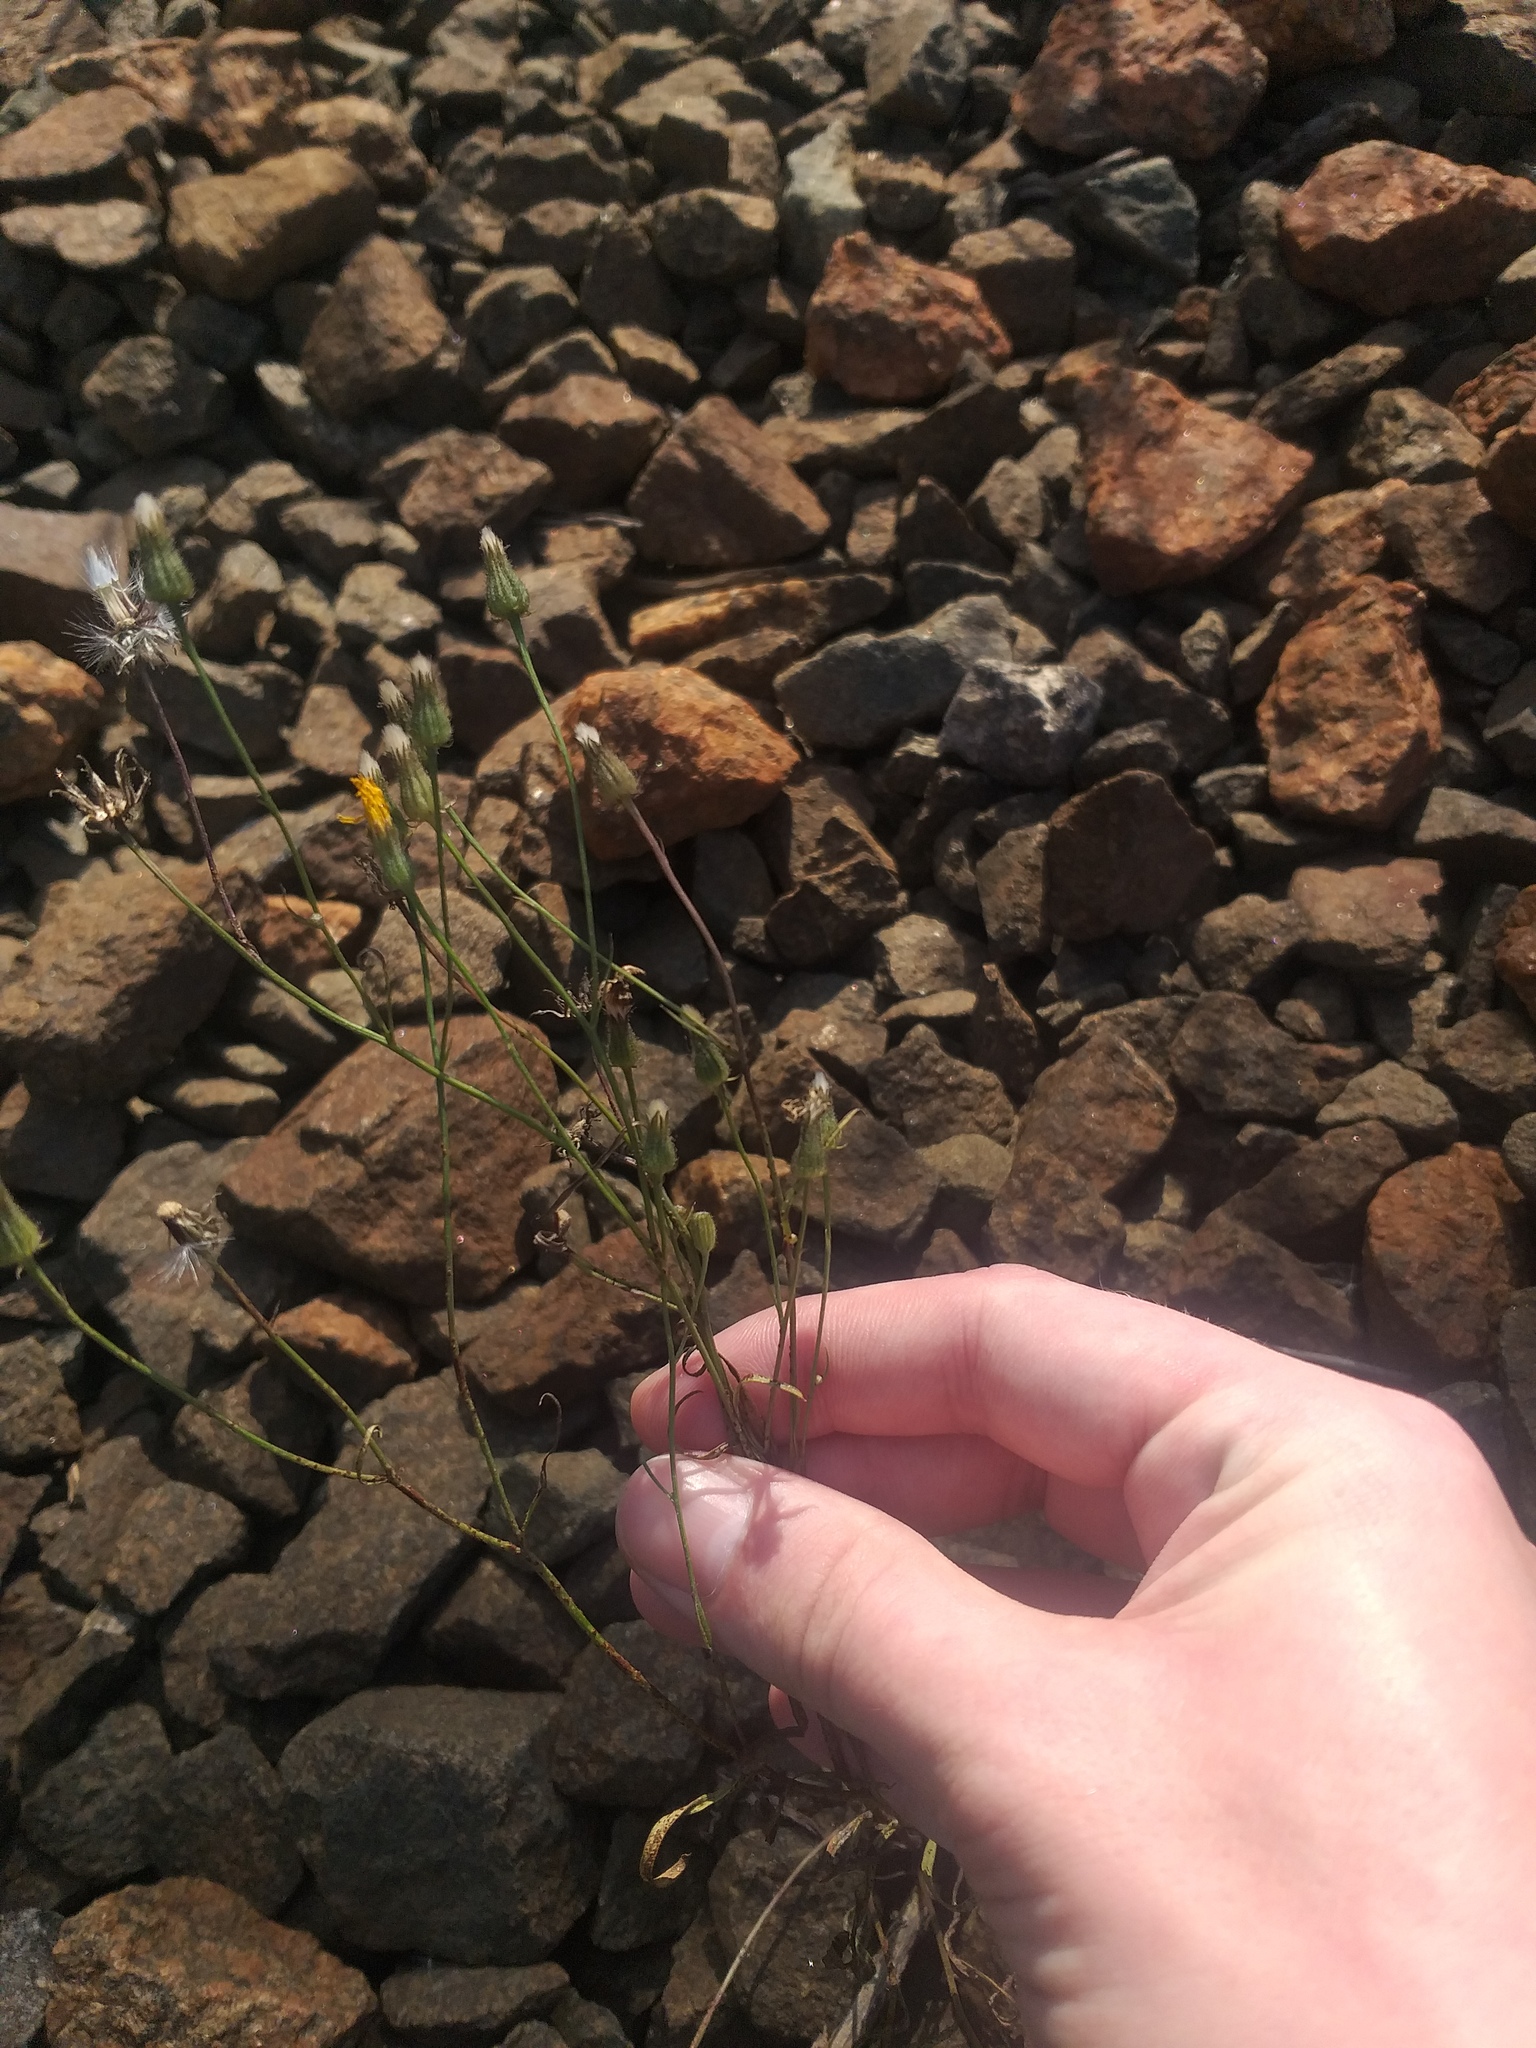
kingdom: Plantae
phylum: Tracheophyta
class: Magnoliopsida
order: Asterales
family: Asteraceae
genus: Crepis
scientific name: Crepis tectorum
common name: Narrow-leaved hawk's-beard
